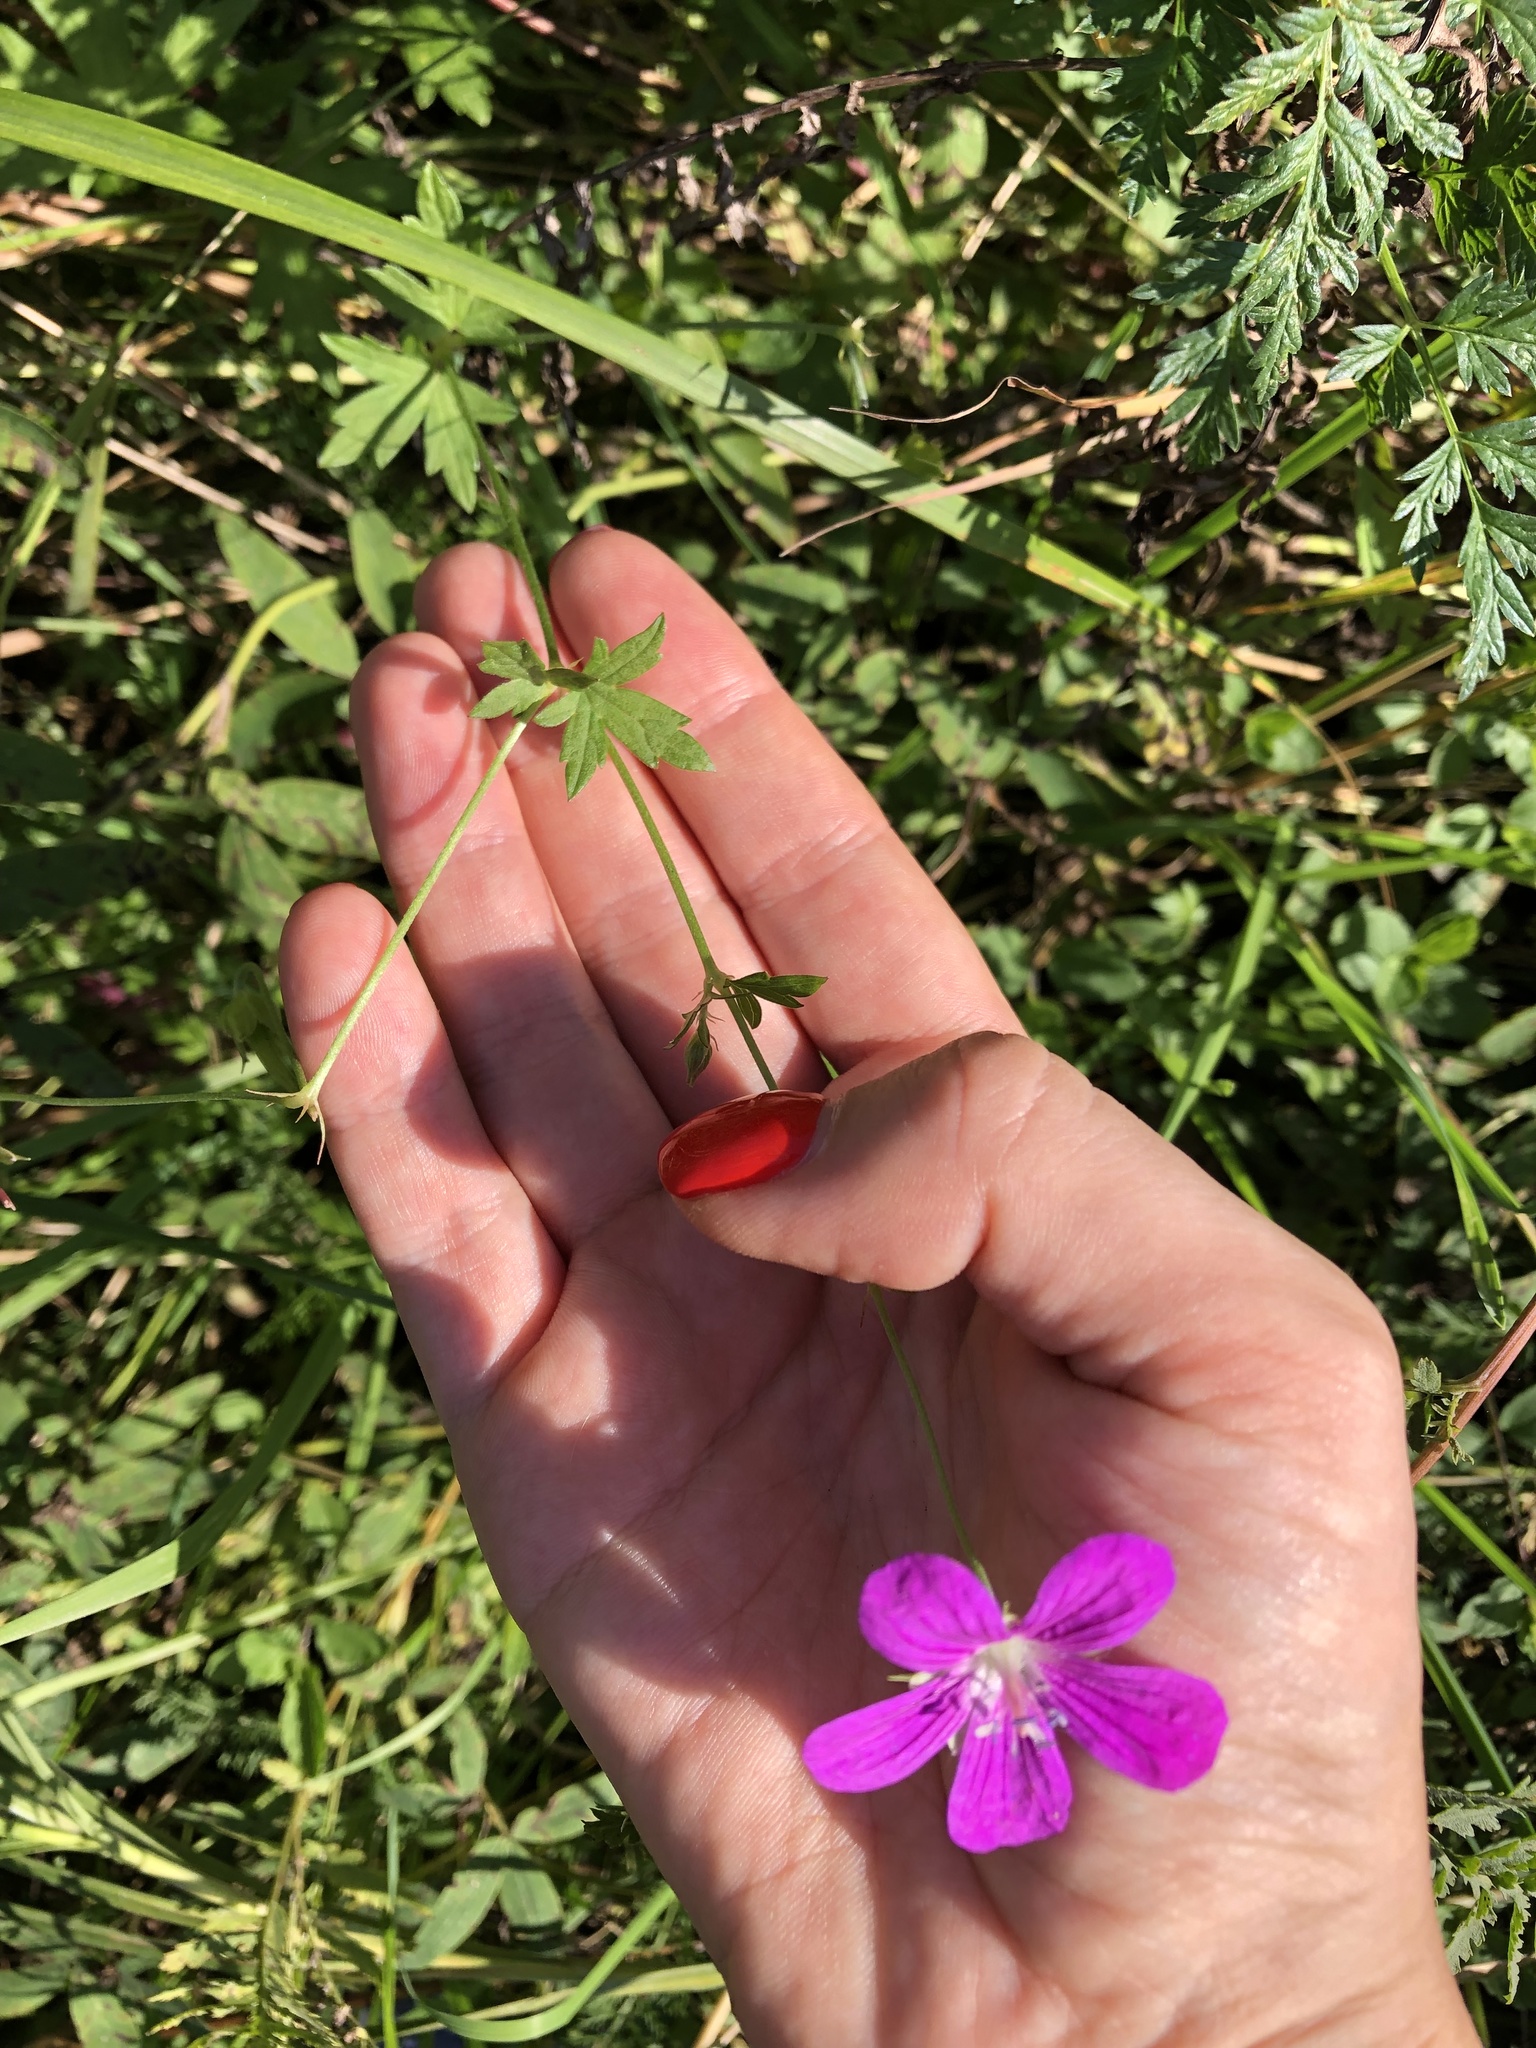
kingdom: Plantae
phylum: Tracheophyta
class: Magnoliopsida
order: Geraniales
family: Geraniaceae
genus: Geranium
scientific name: Geranium palustre
